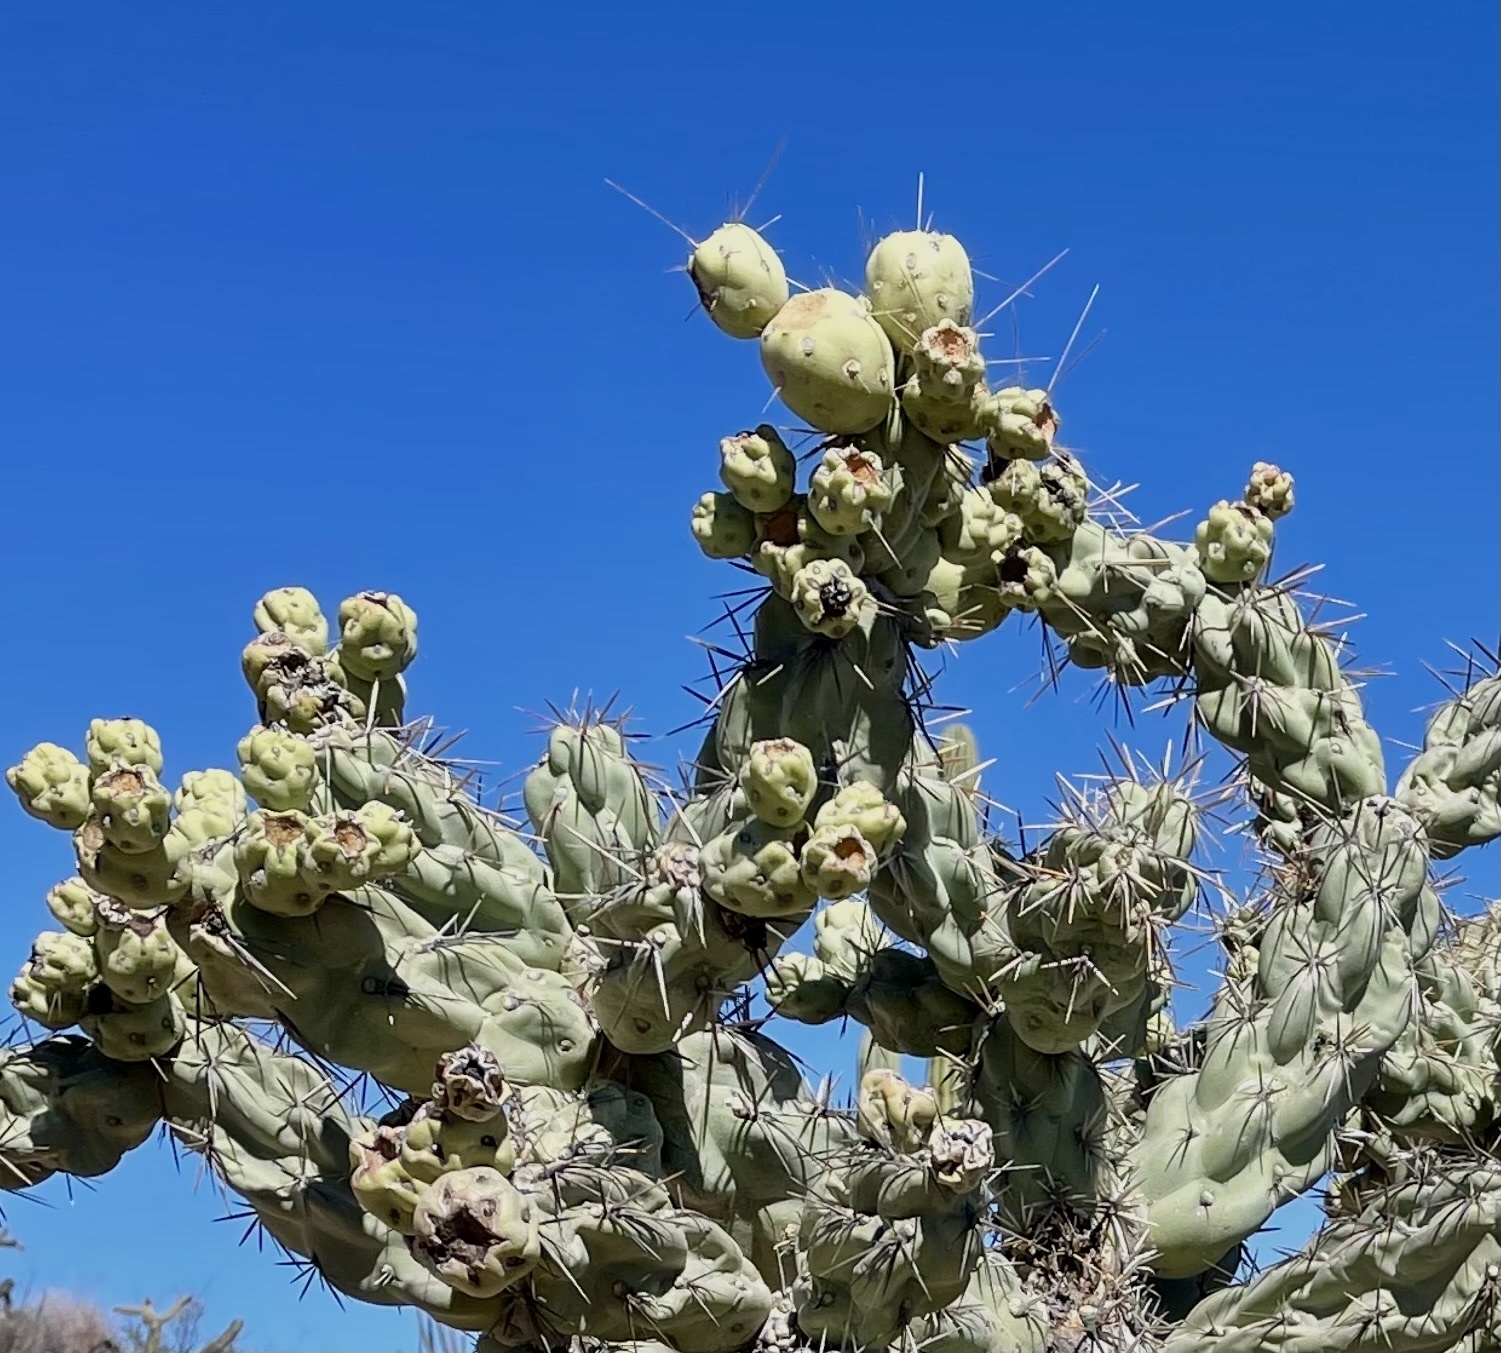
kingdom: Plantae
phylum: Tracheophyta
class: Magnoliopsida
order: Caryophyllales
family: Cactaceae
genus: Cylindropuntia
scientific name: Cylindropuntia cholla
